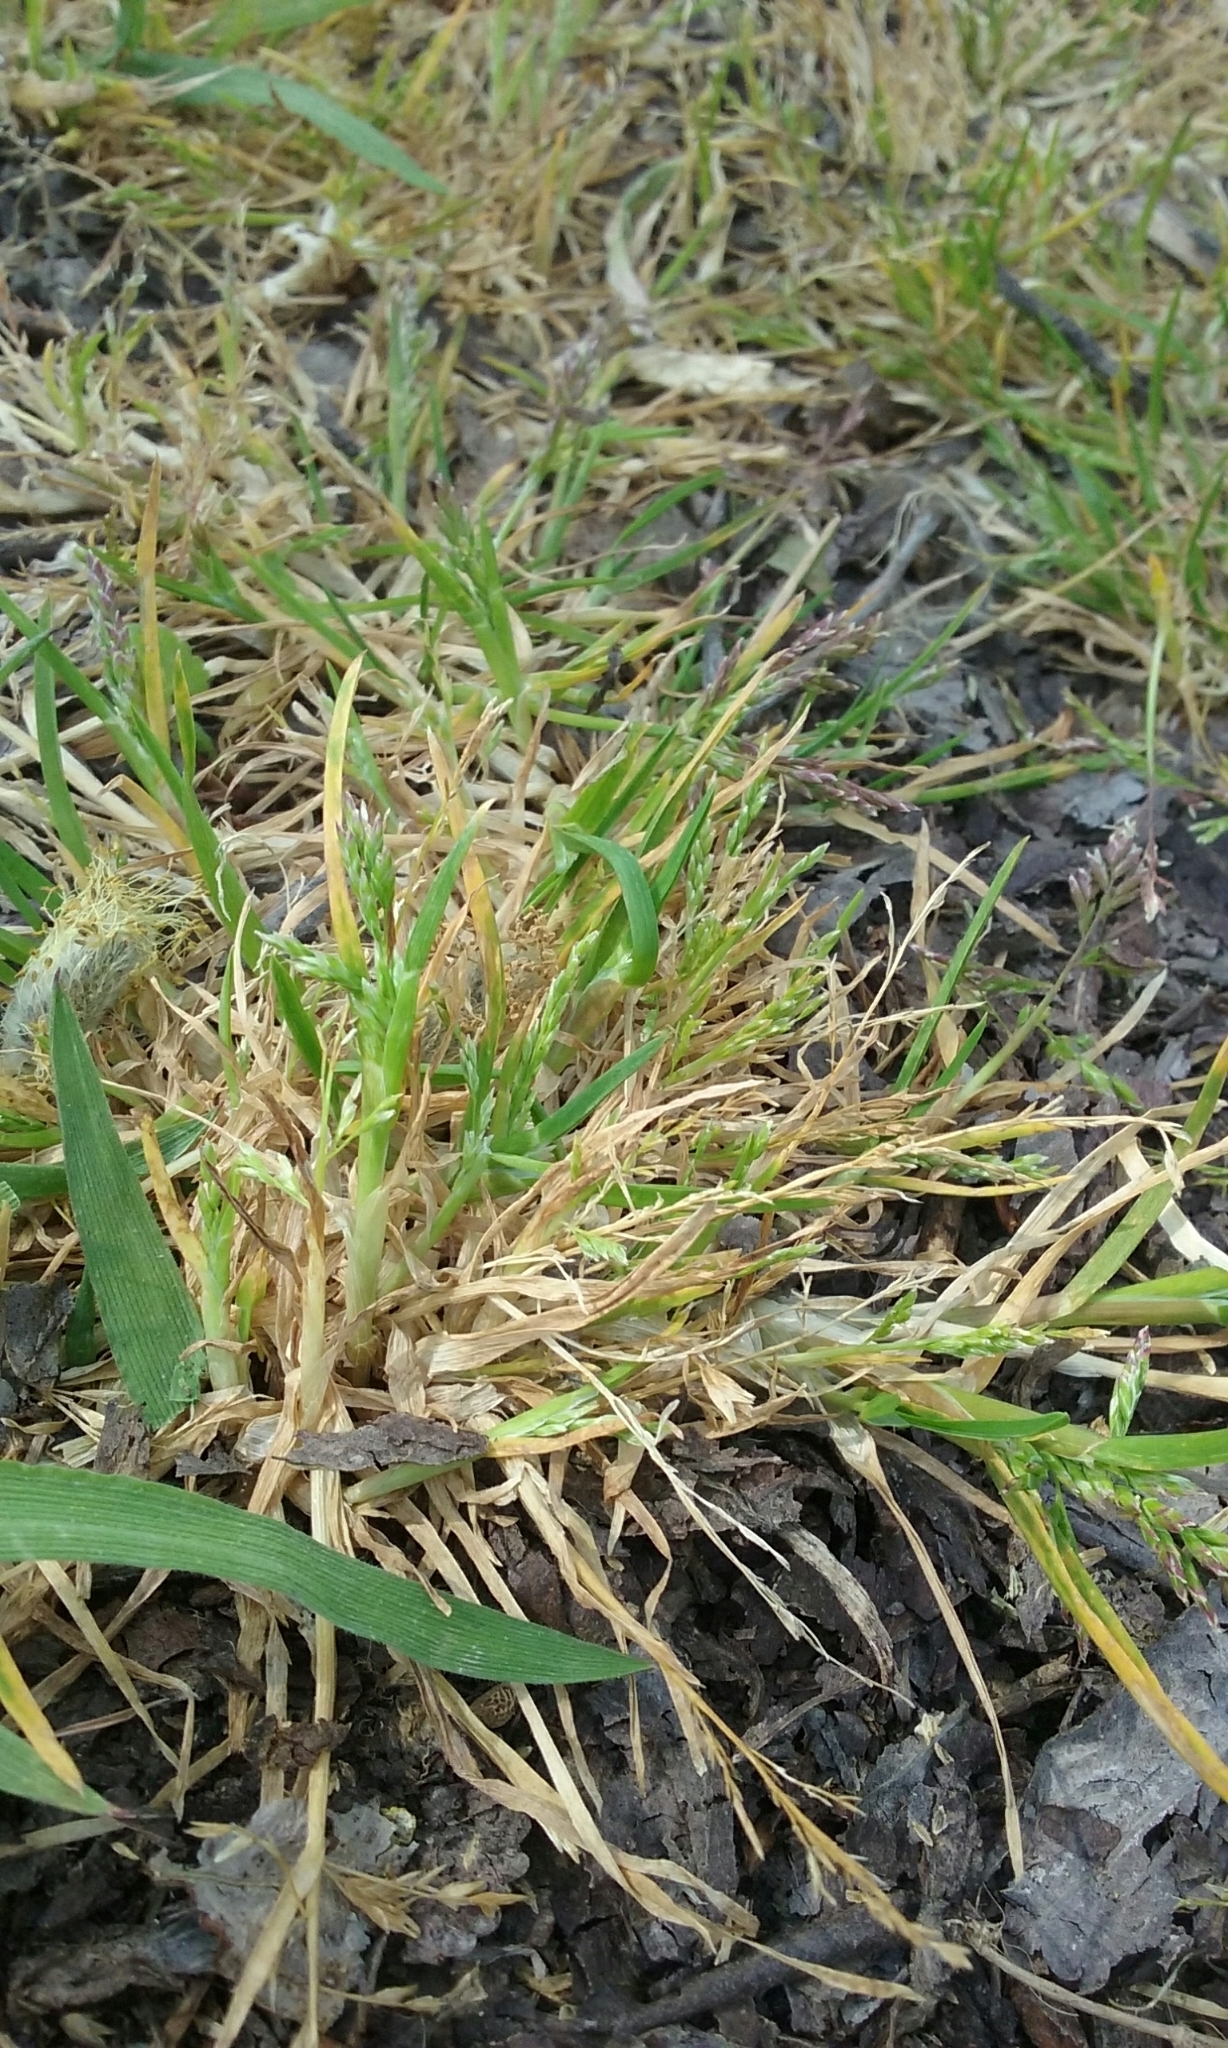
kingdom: Plantae
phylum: Tracheophyta
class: Liliopsida
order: Poales
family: Poaceae
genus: Poa
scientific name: Poa annua
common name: Annual bluegrass
